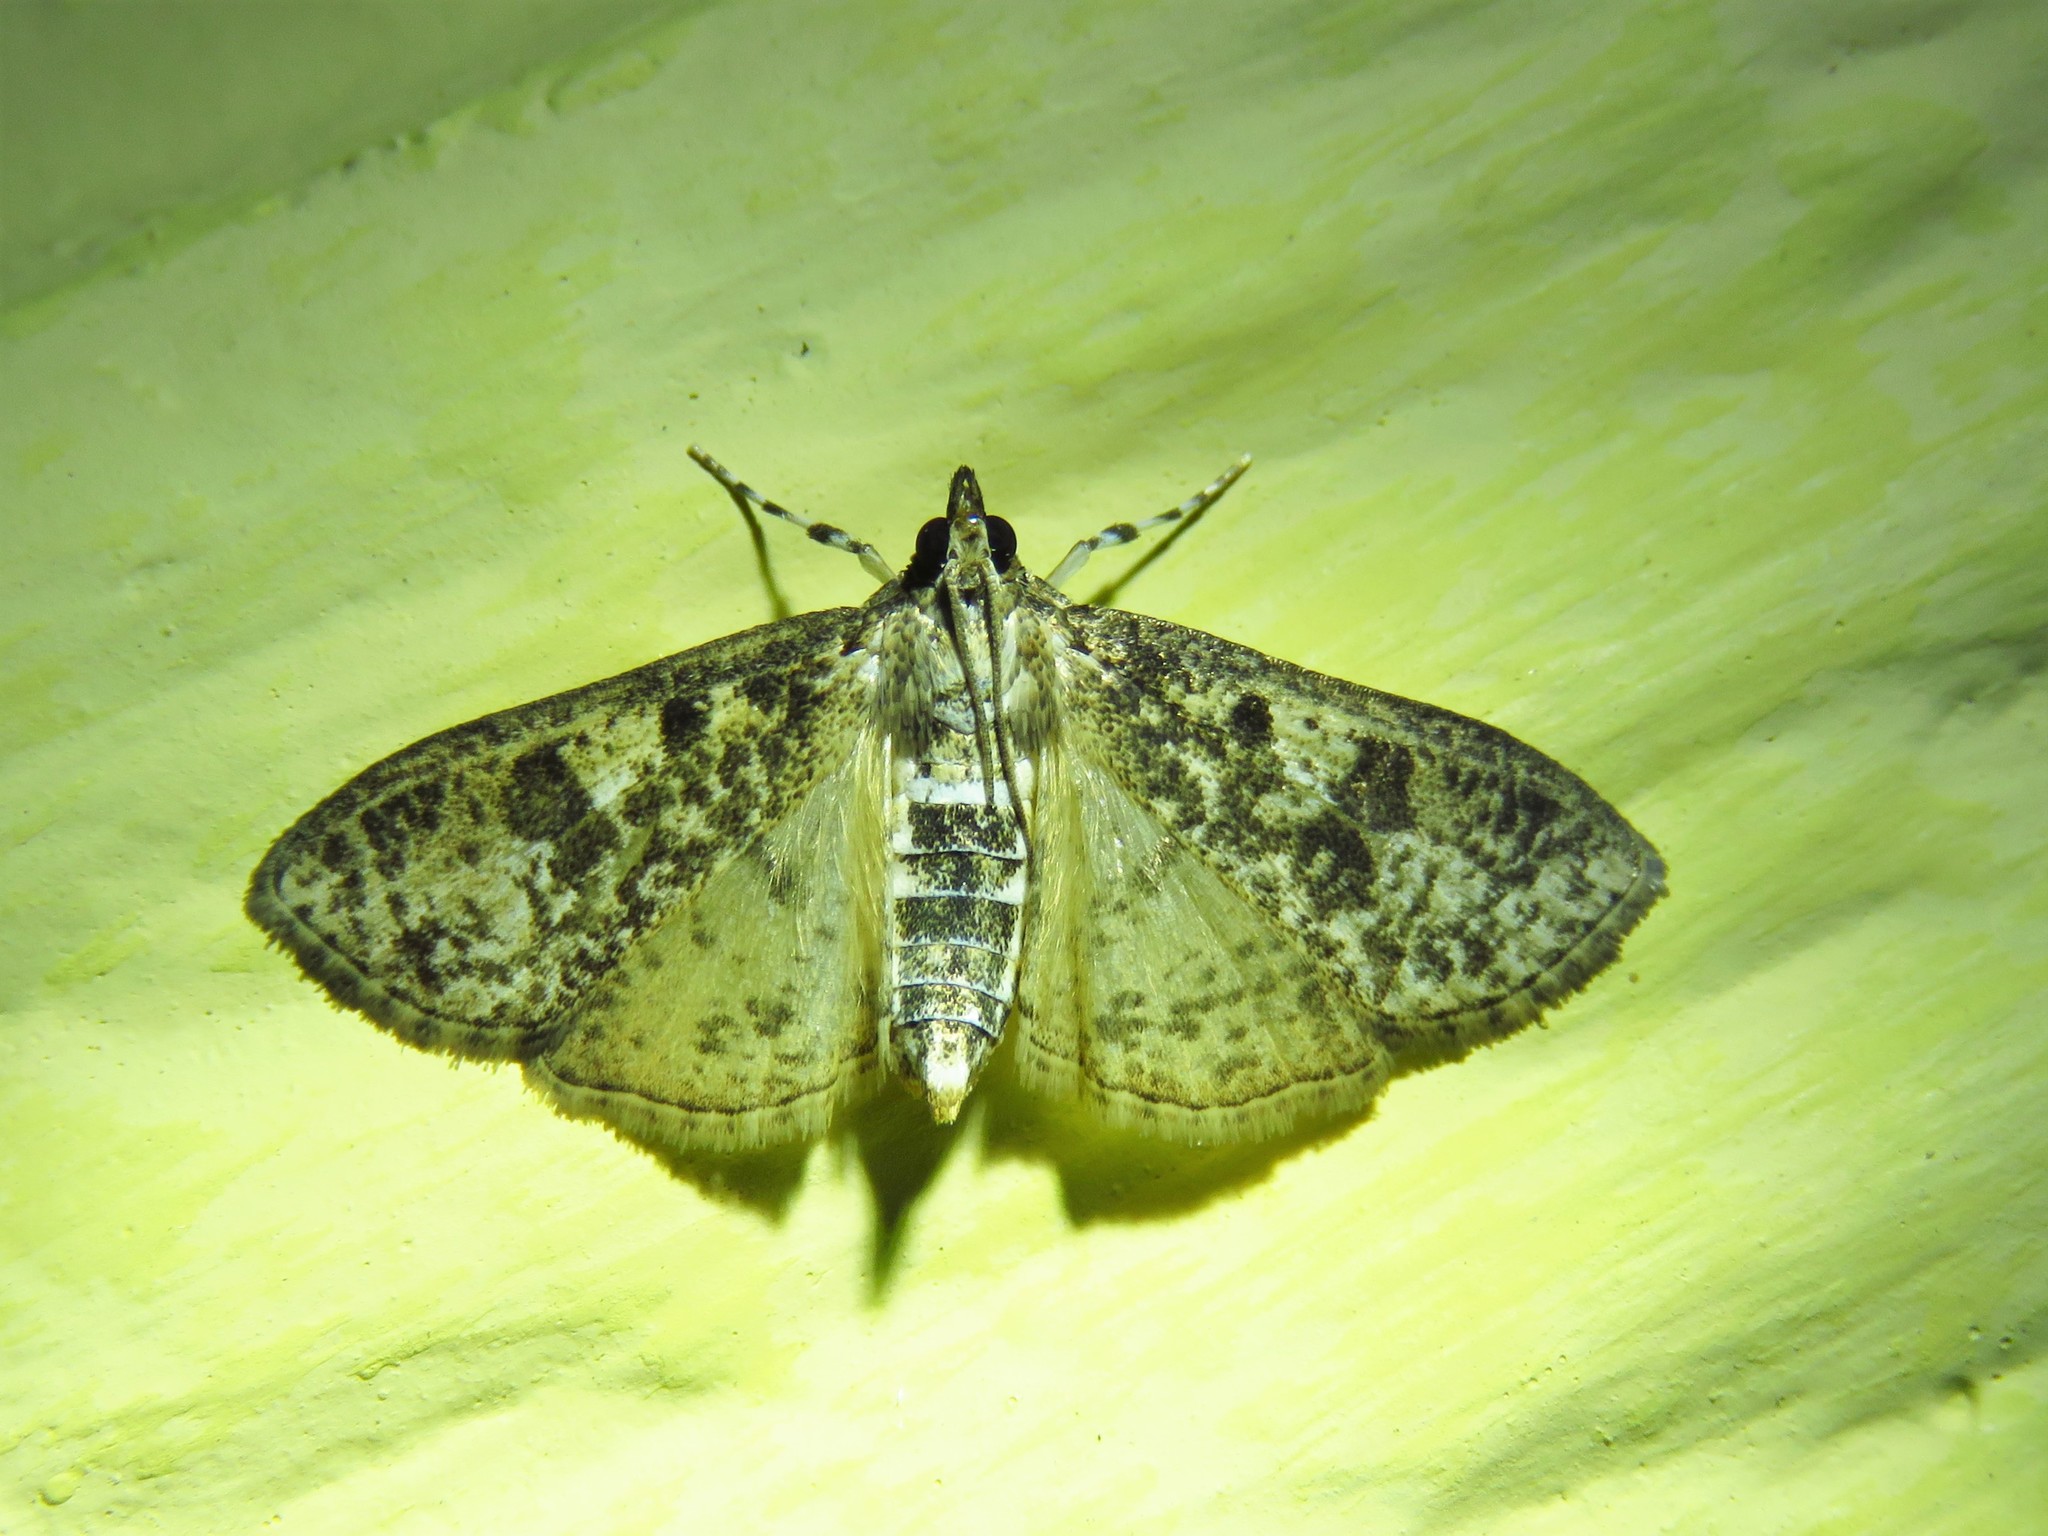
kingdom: Animalia
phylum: Arthropoda
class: Insecta
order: Lepidoptera
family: Crambidae
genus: Palpita
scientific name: Palpita magniferalis
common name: Splendid palpita moth
